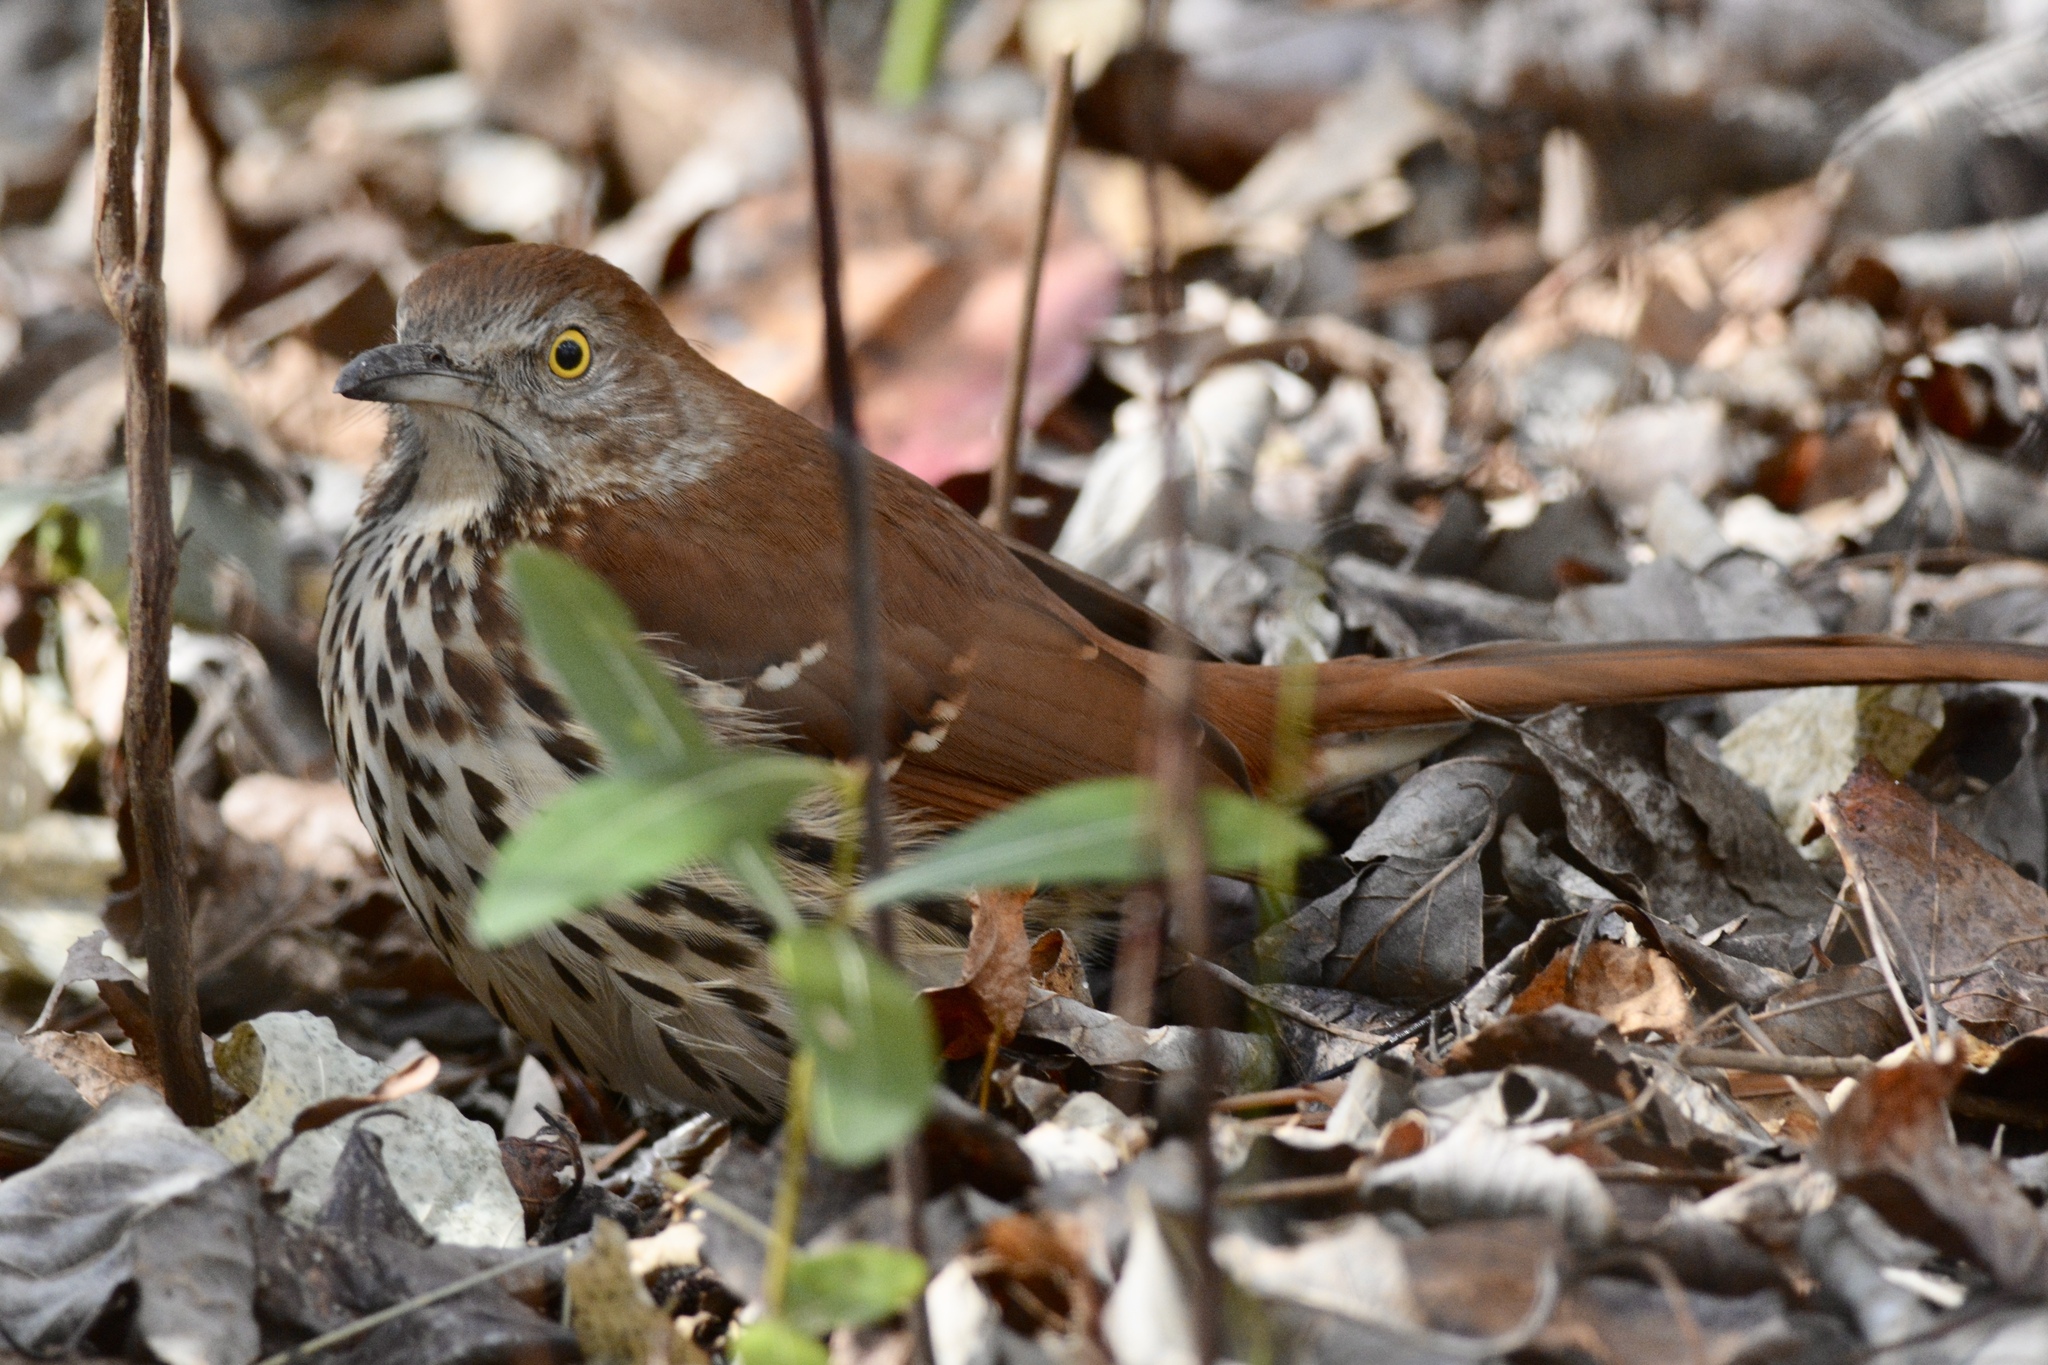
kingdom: Animalia
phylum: Chordata
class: Aves
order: Passeriformes
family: Mimidae
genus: Toxostoma
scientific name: Toxostoma rufum
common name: Brown thrasher
